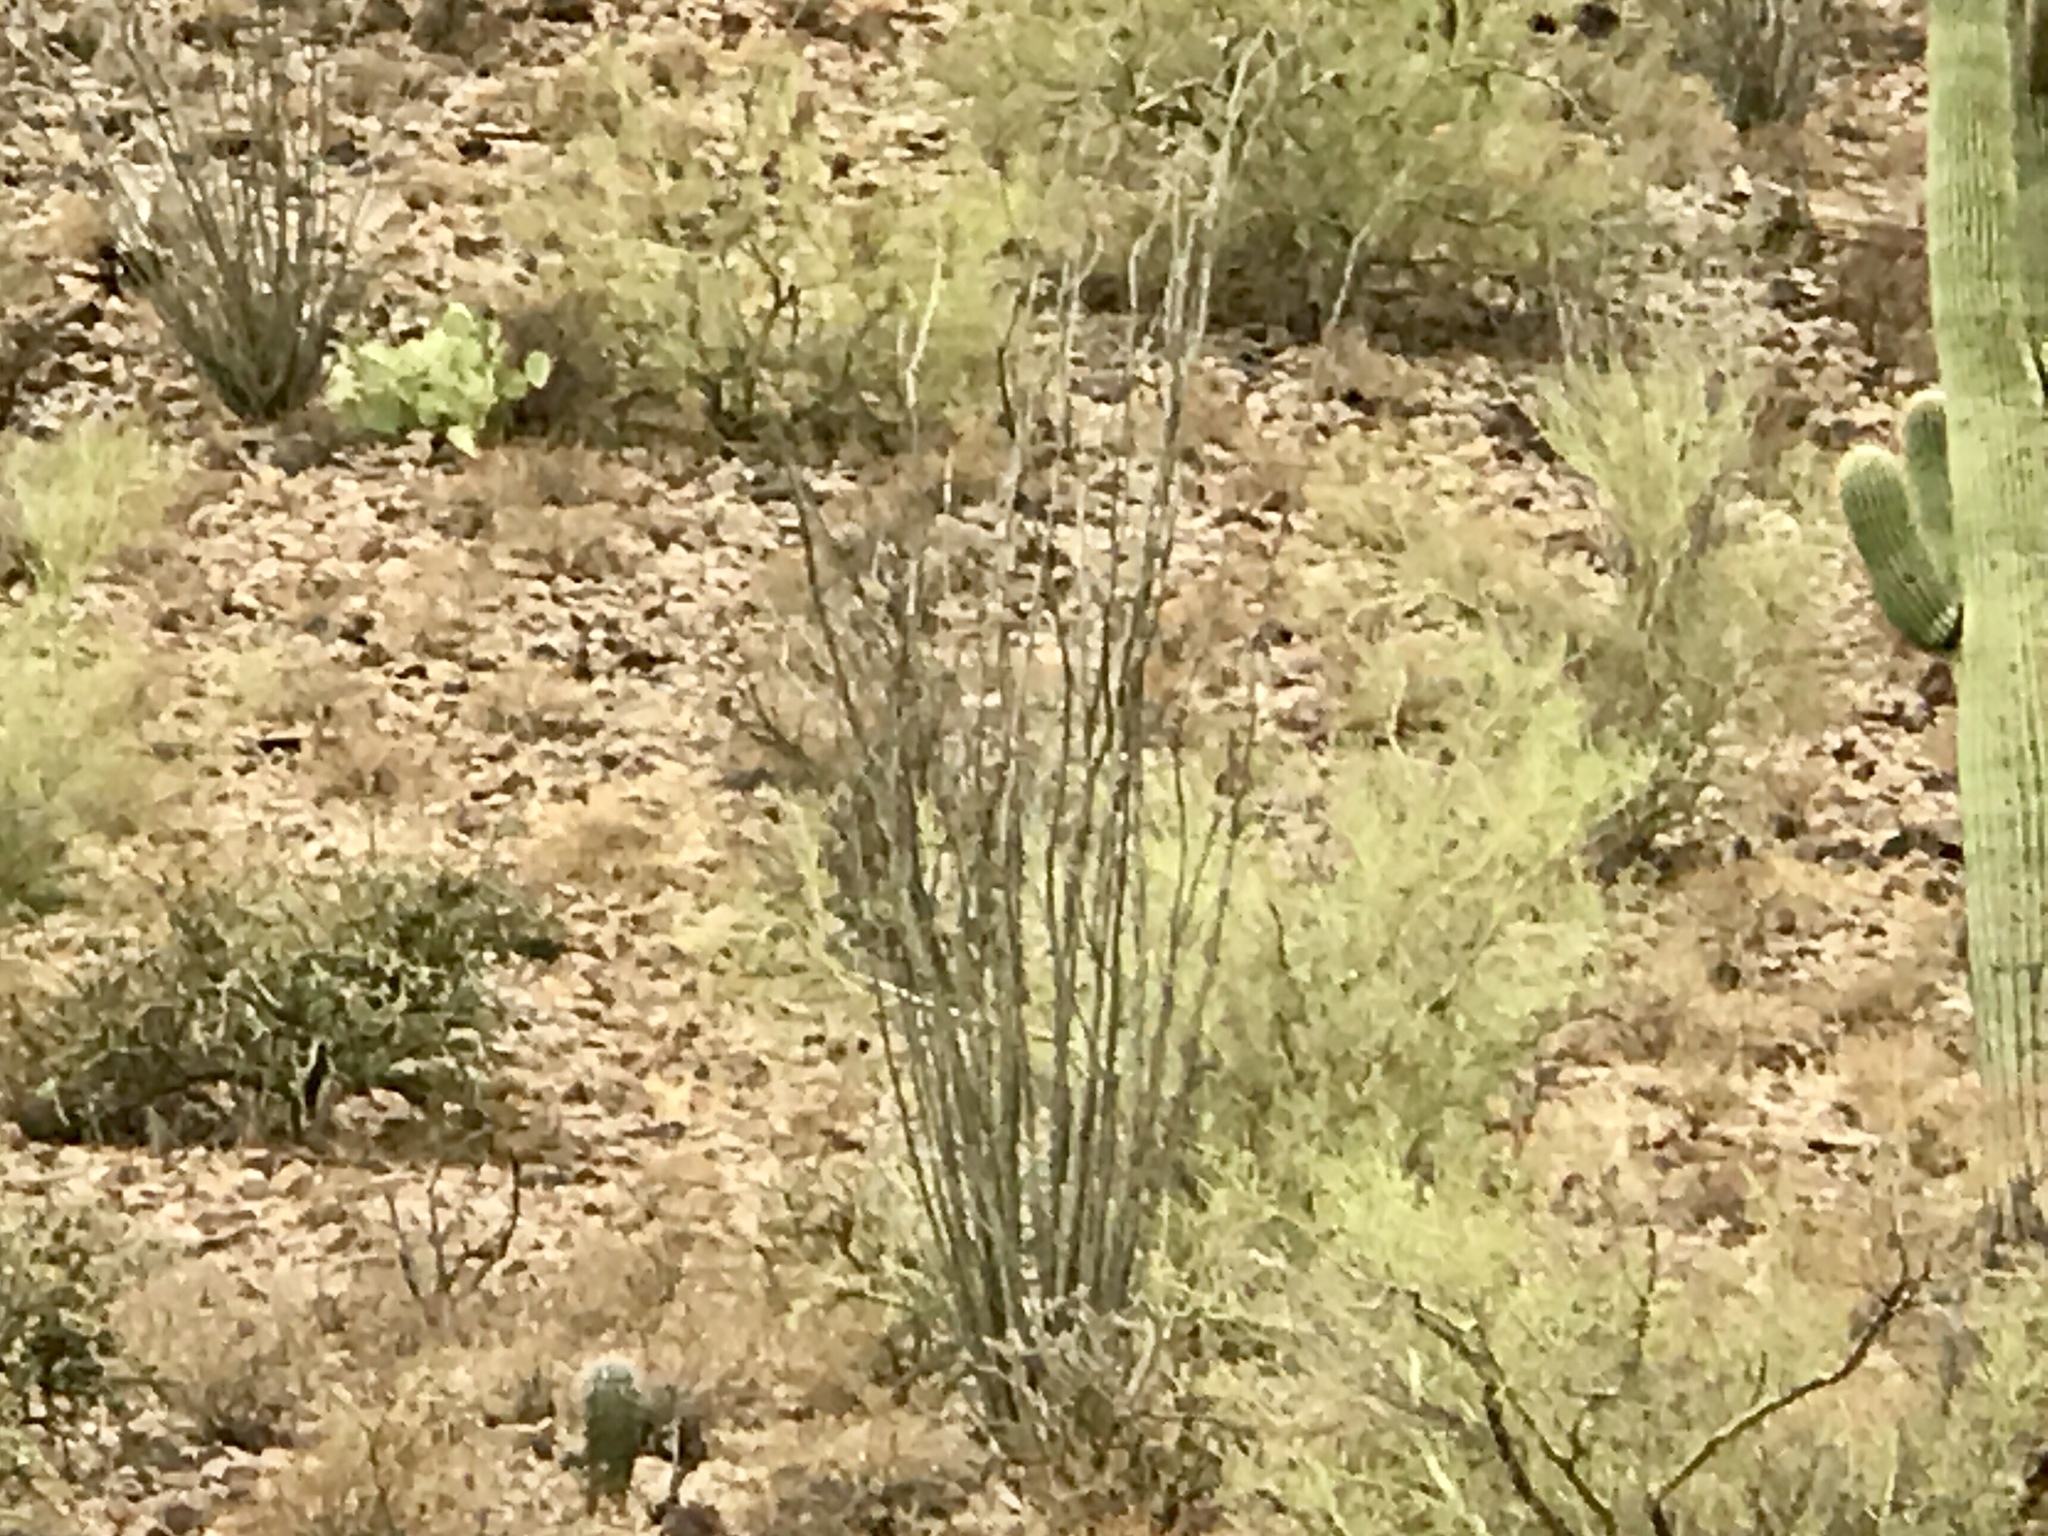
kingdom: Plantae
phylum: Tracheophyta
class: Magnoliopsida
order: Ericales
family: Fouquieriaceae
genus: Fouquieria
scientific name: Fouquieria splendens
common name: Vine-cactus
